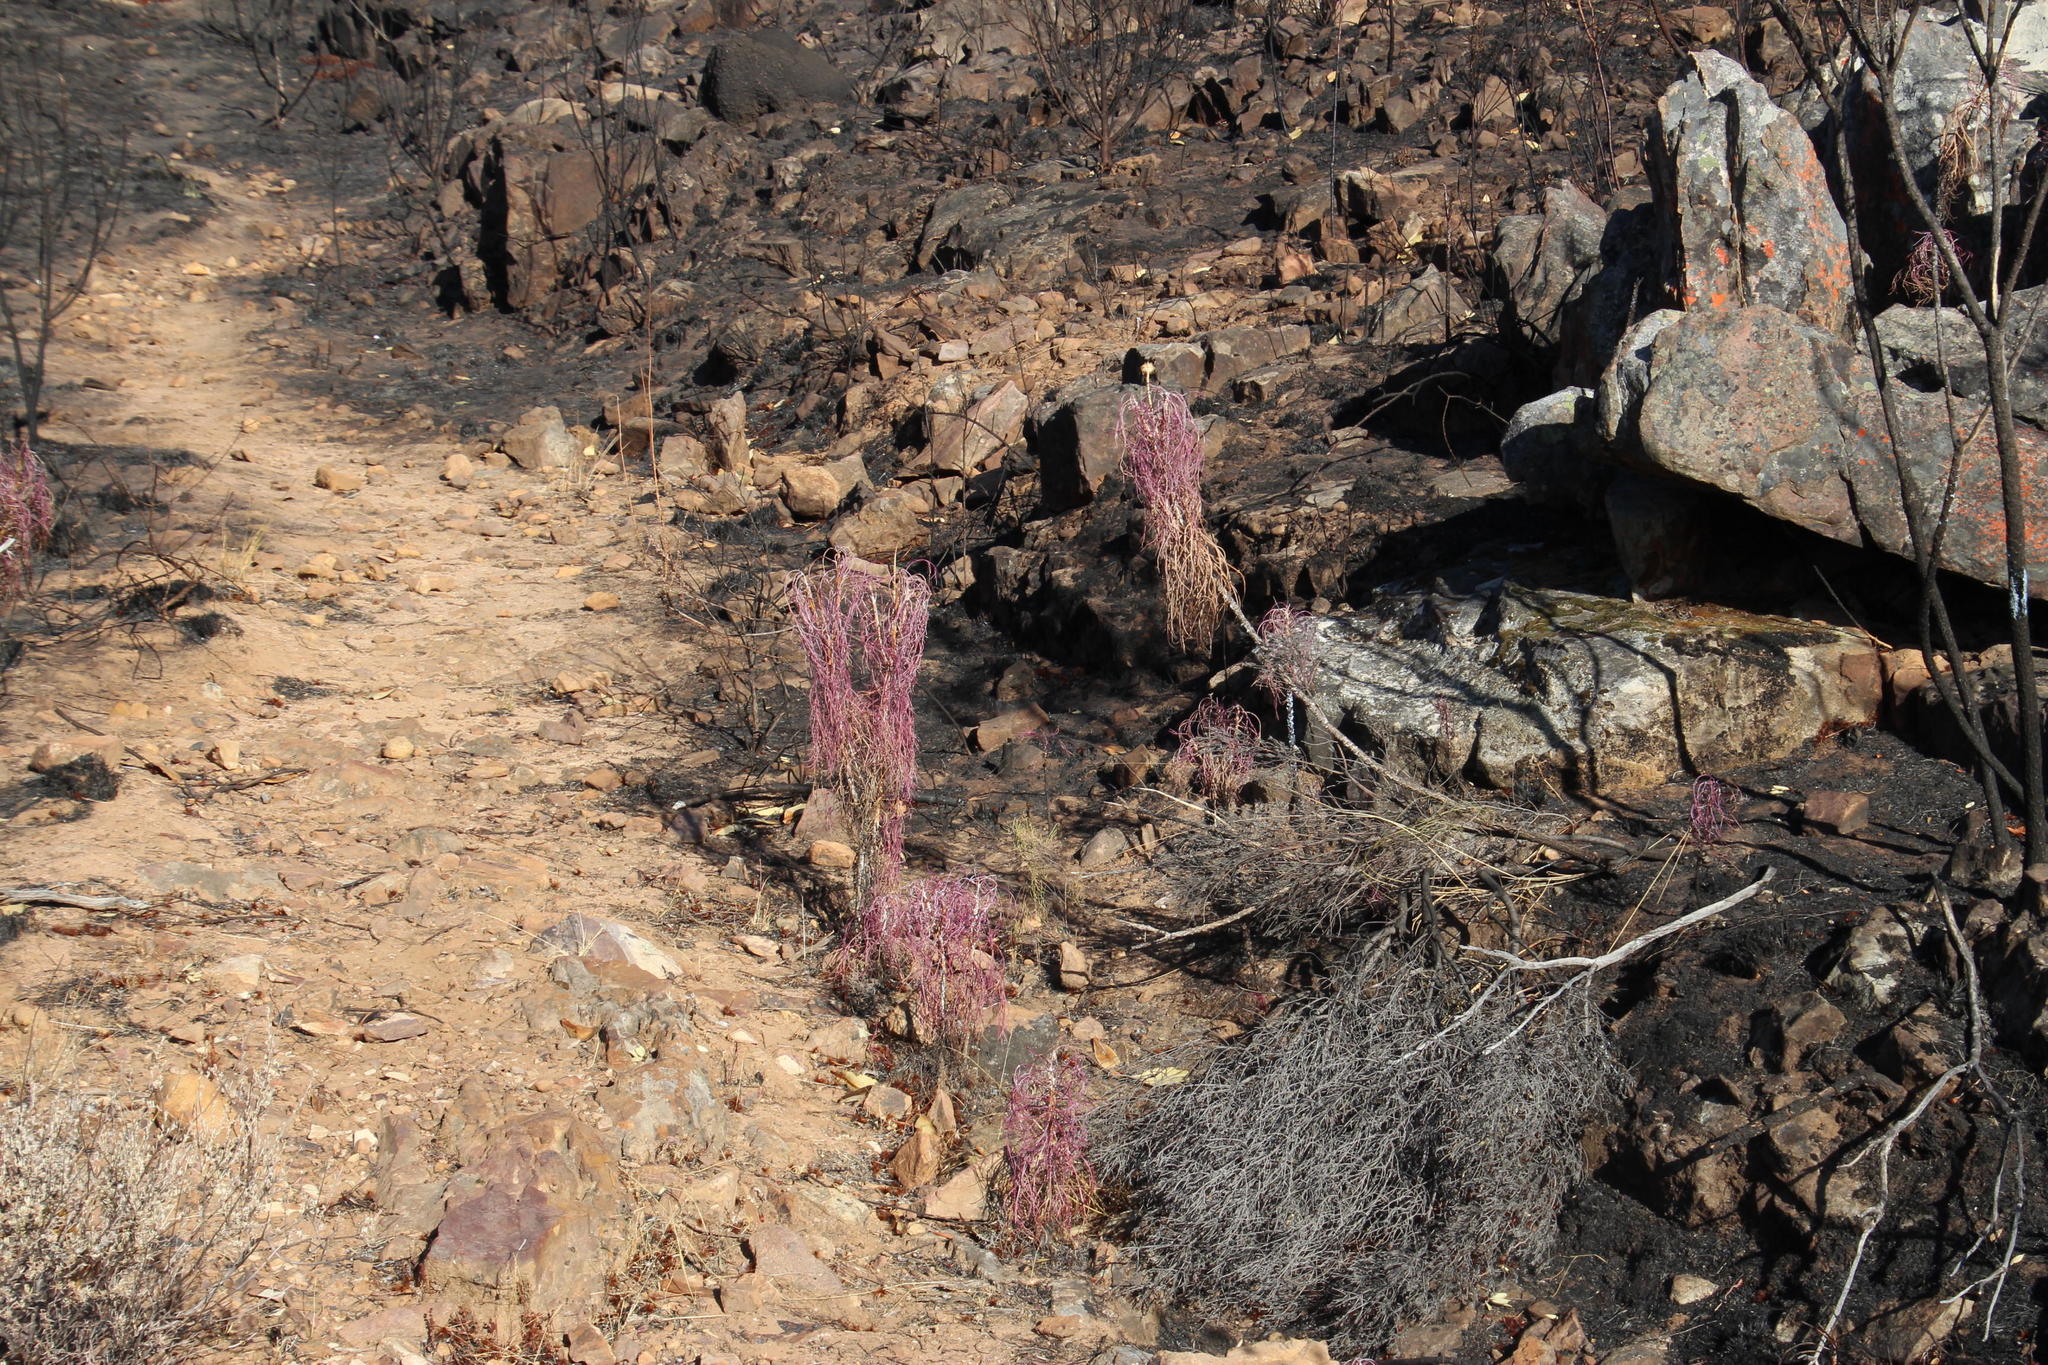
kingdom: Plantae
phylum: Tracheophyta
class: Magnoliopsida
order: Asterales
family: Asteraceae
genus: Euryops
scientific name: Euryops speciosissimus
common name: Clanwilliam daisy
